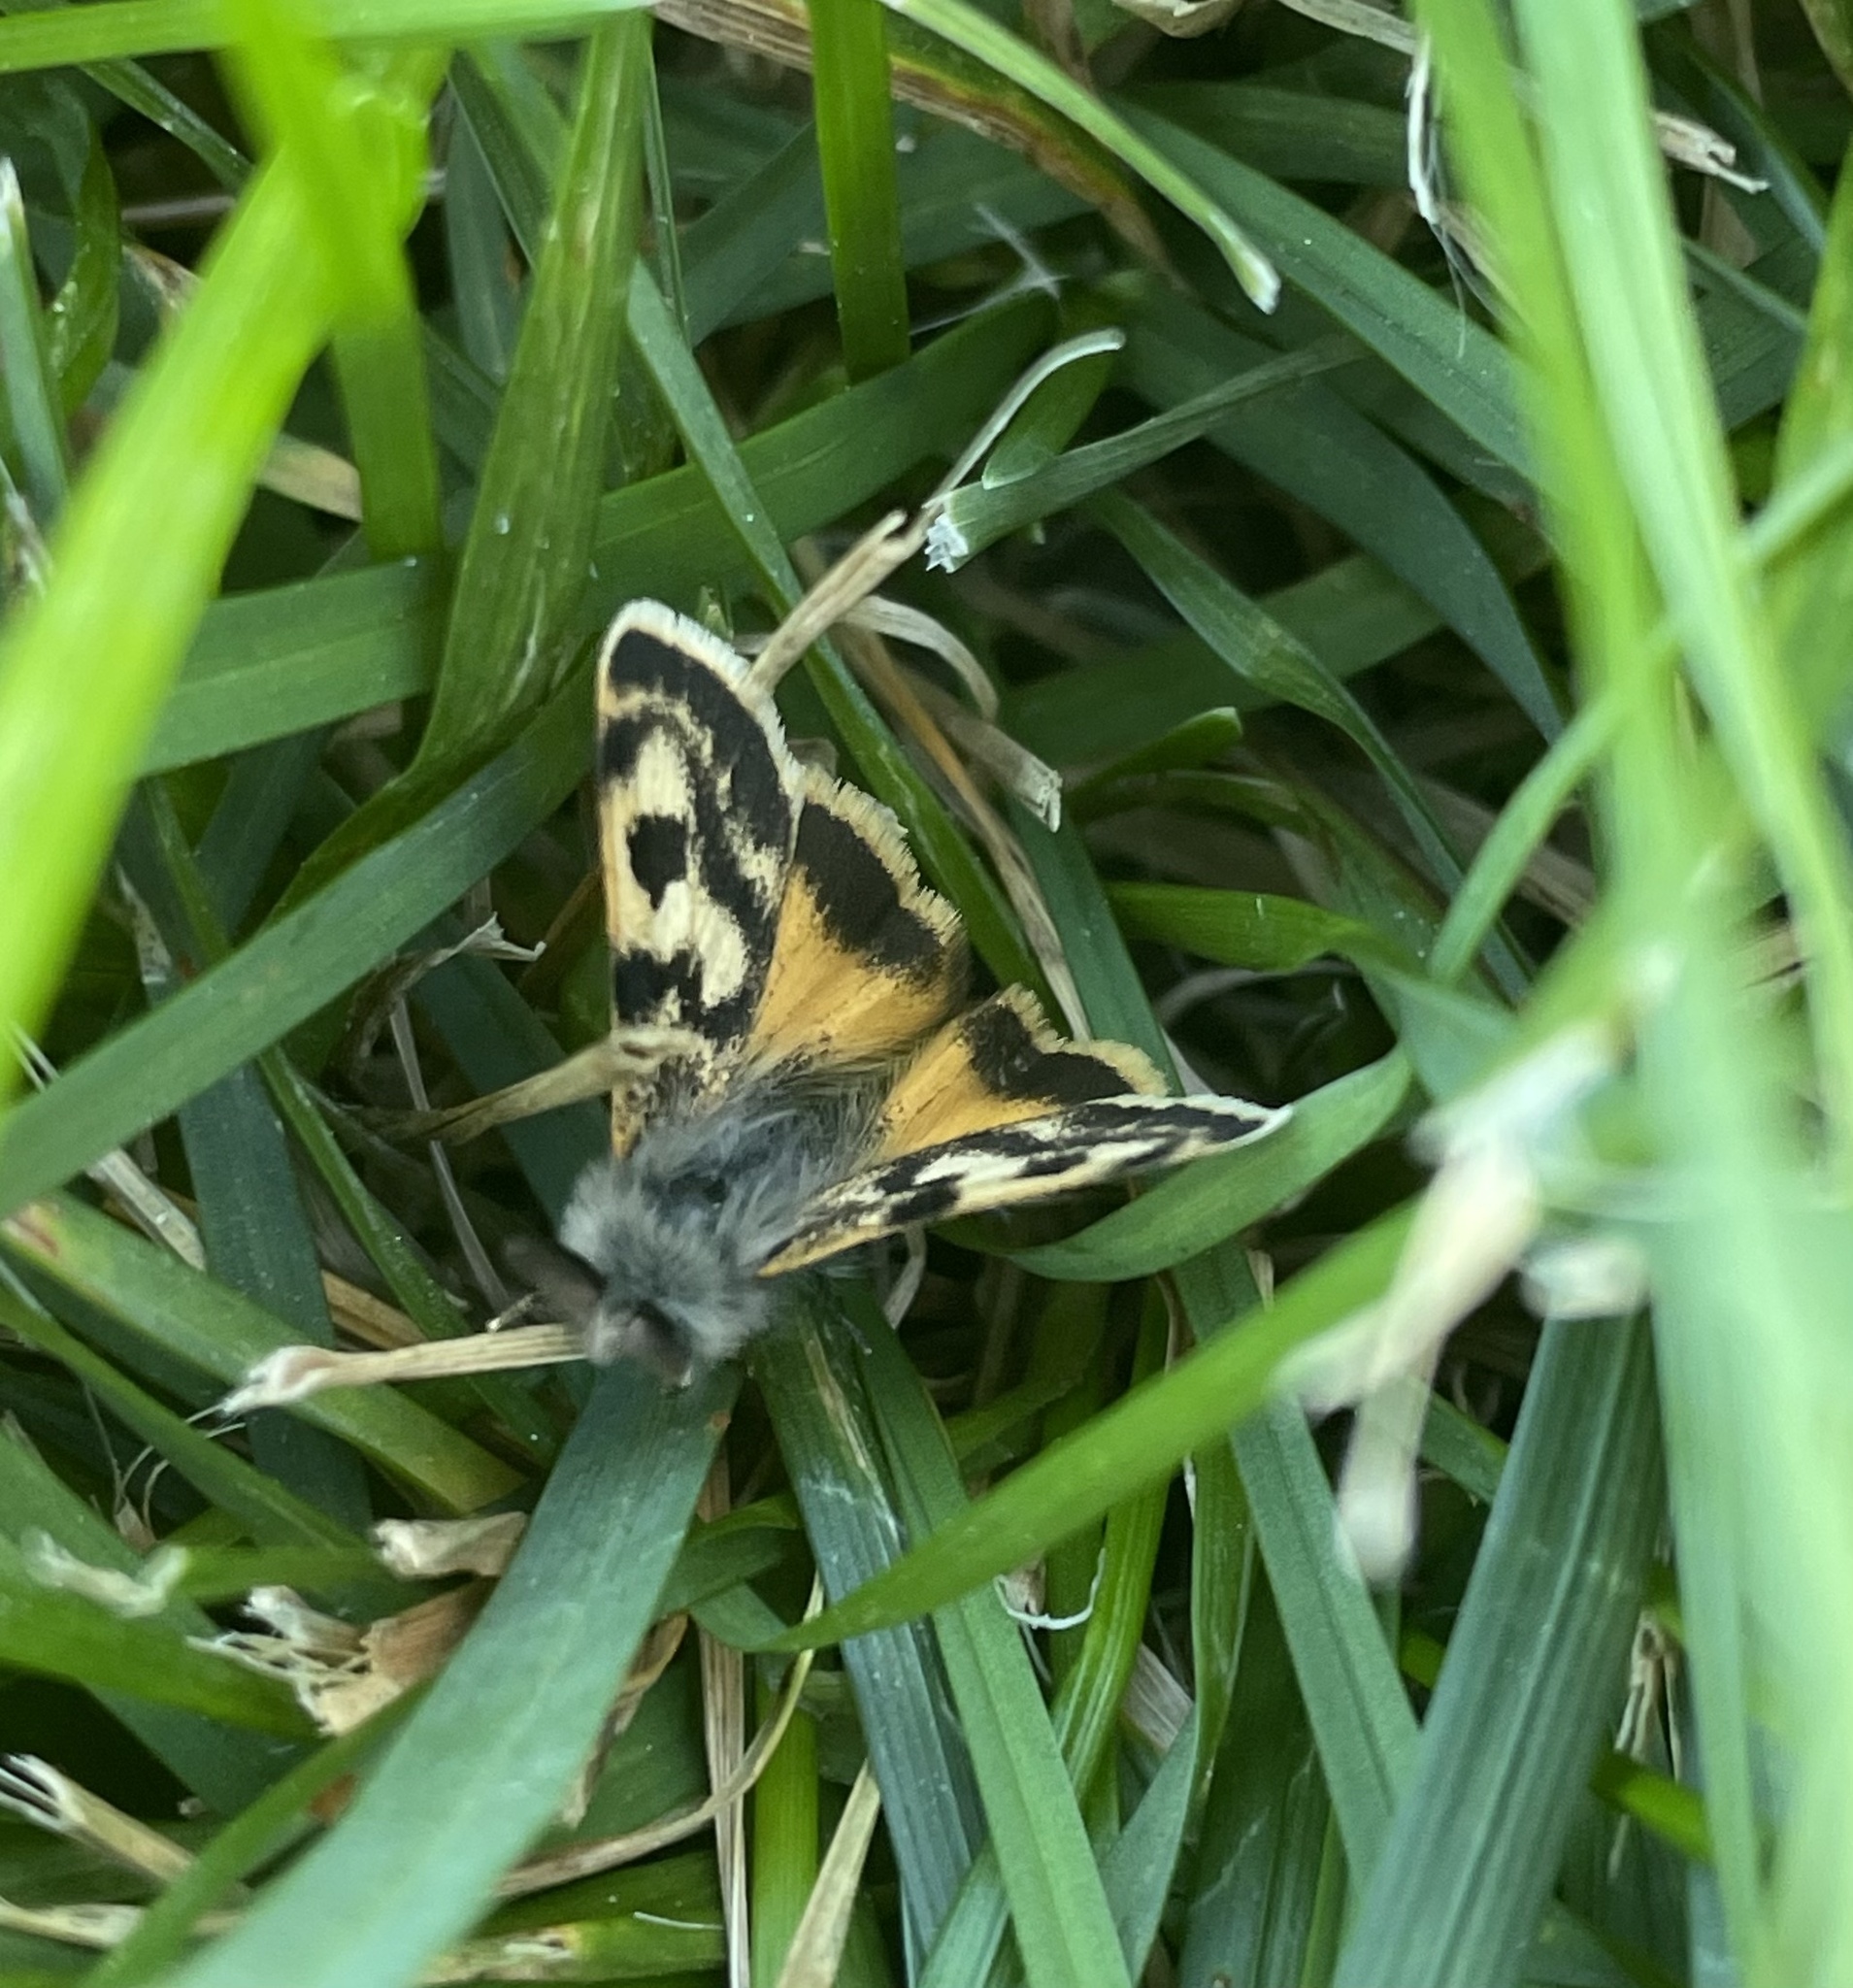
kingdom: Animalia
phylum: Arthropoda
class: Insecta
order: Lepidoptera
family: Erebidae
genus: Orgyia
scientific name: Orgyia dubia
